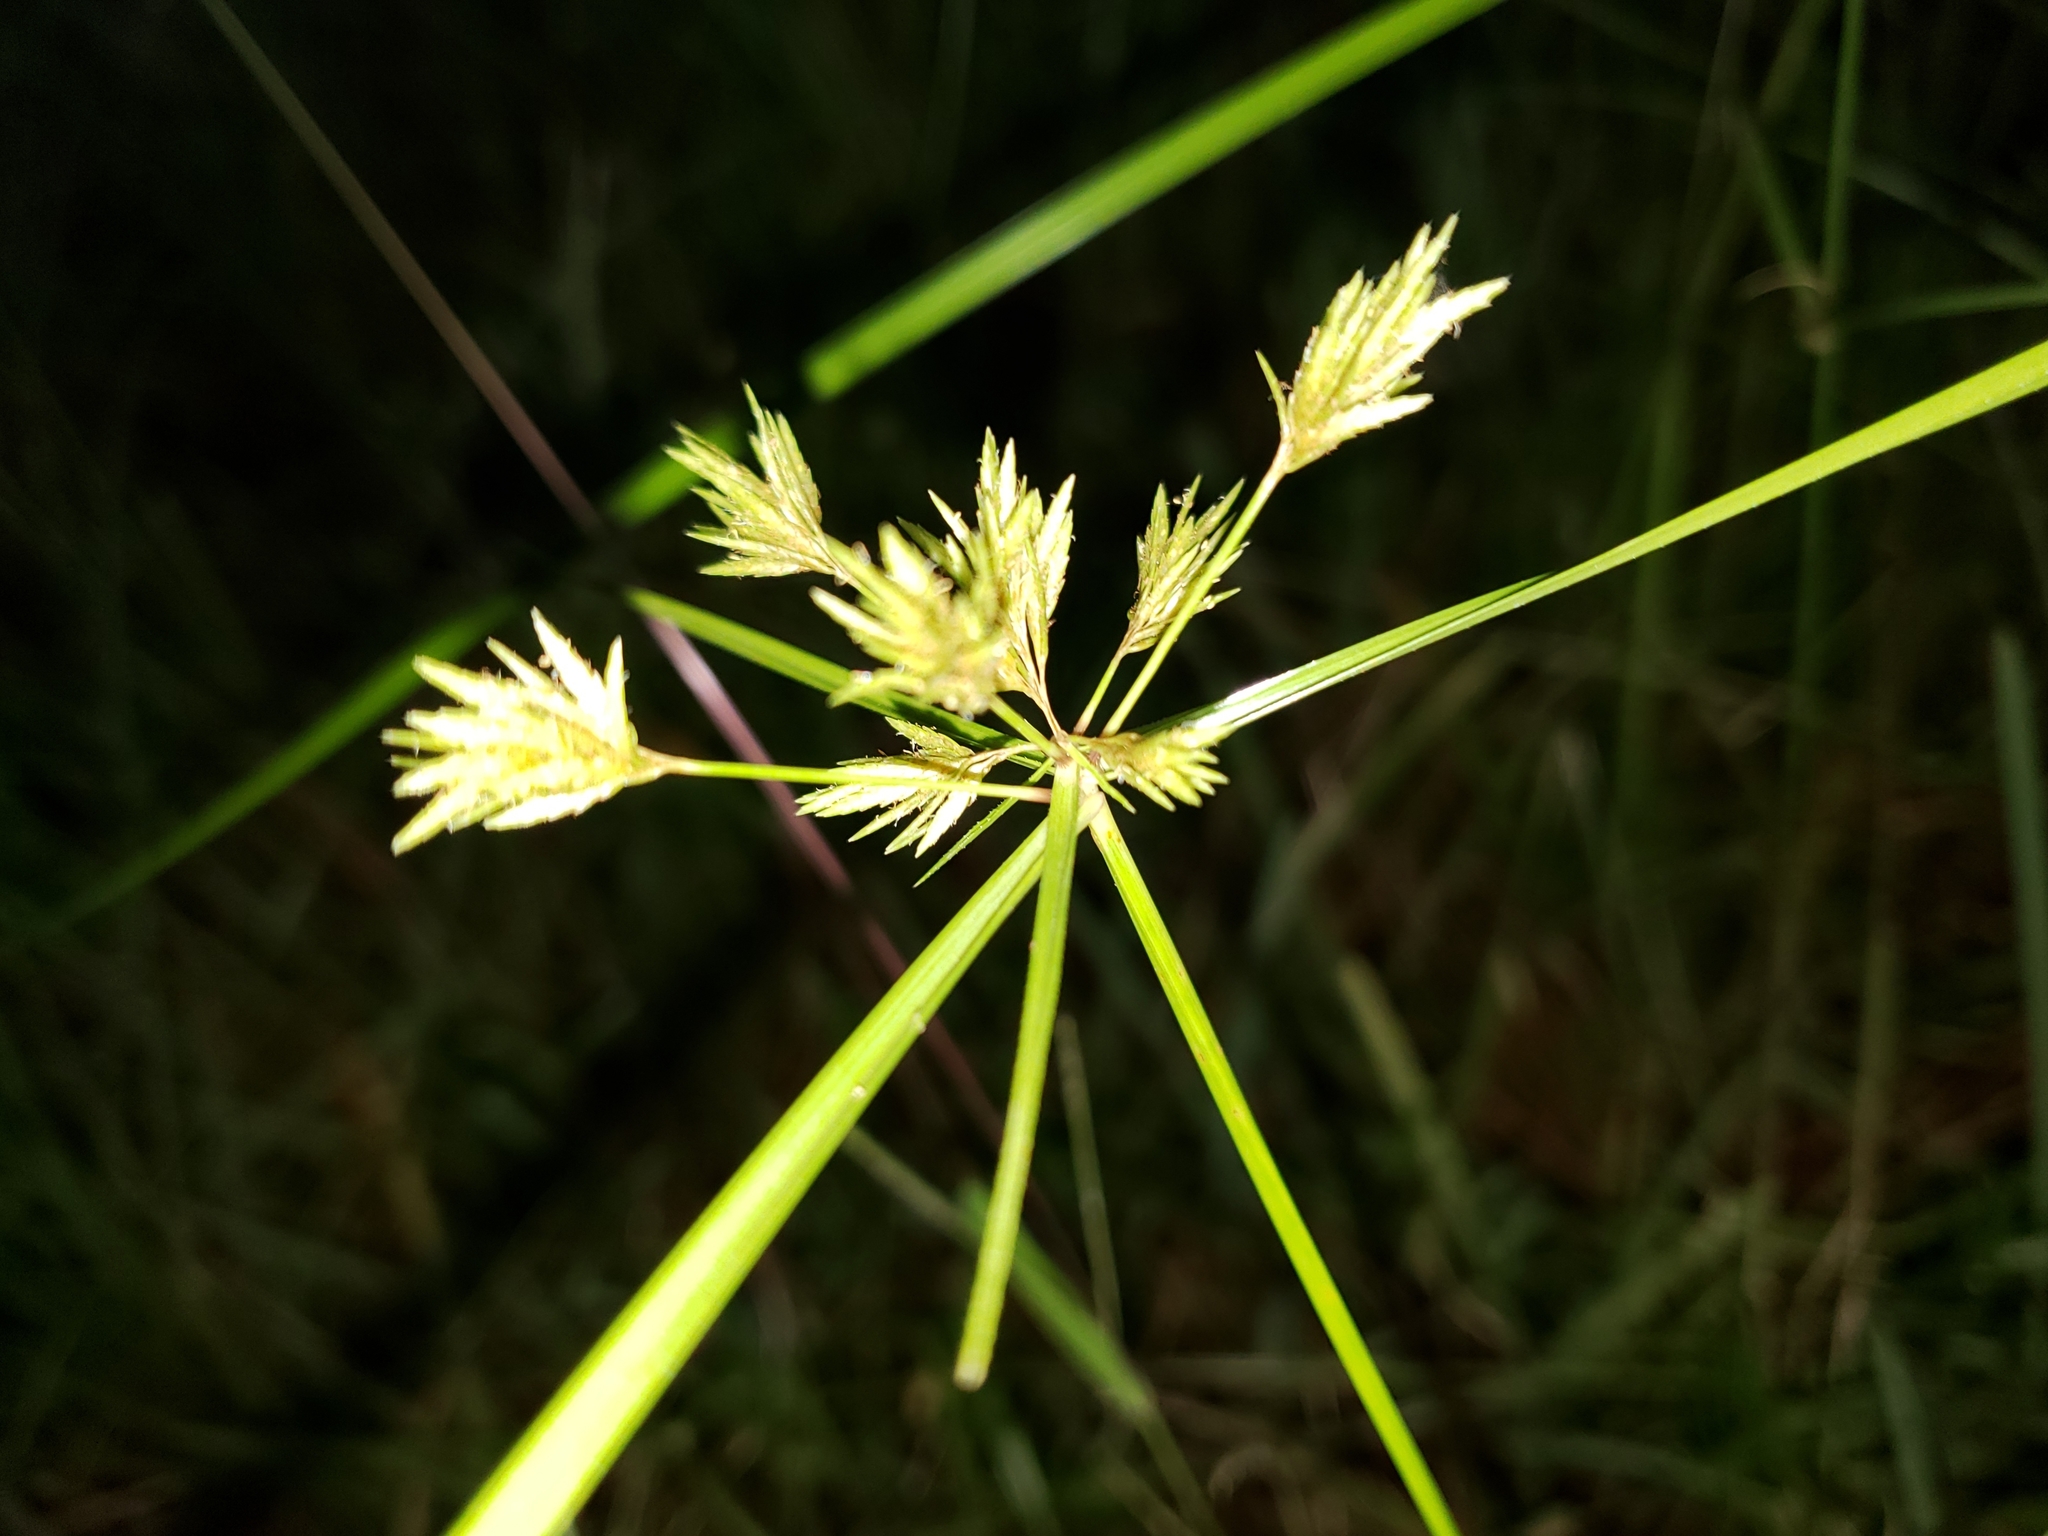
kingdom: Plantae
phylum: Tracheophyta
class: Liliopsida
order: Poales
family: Cyperaceae
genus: Cyperus
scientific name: Cyperus polystachyos
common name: Bunchy flat sedge
